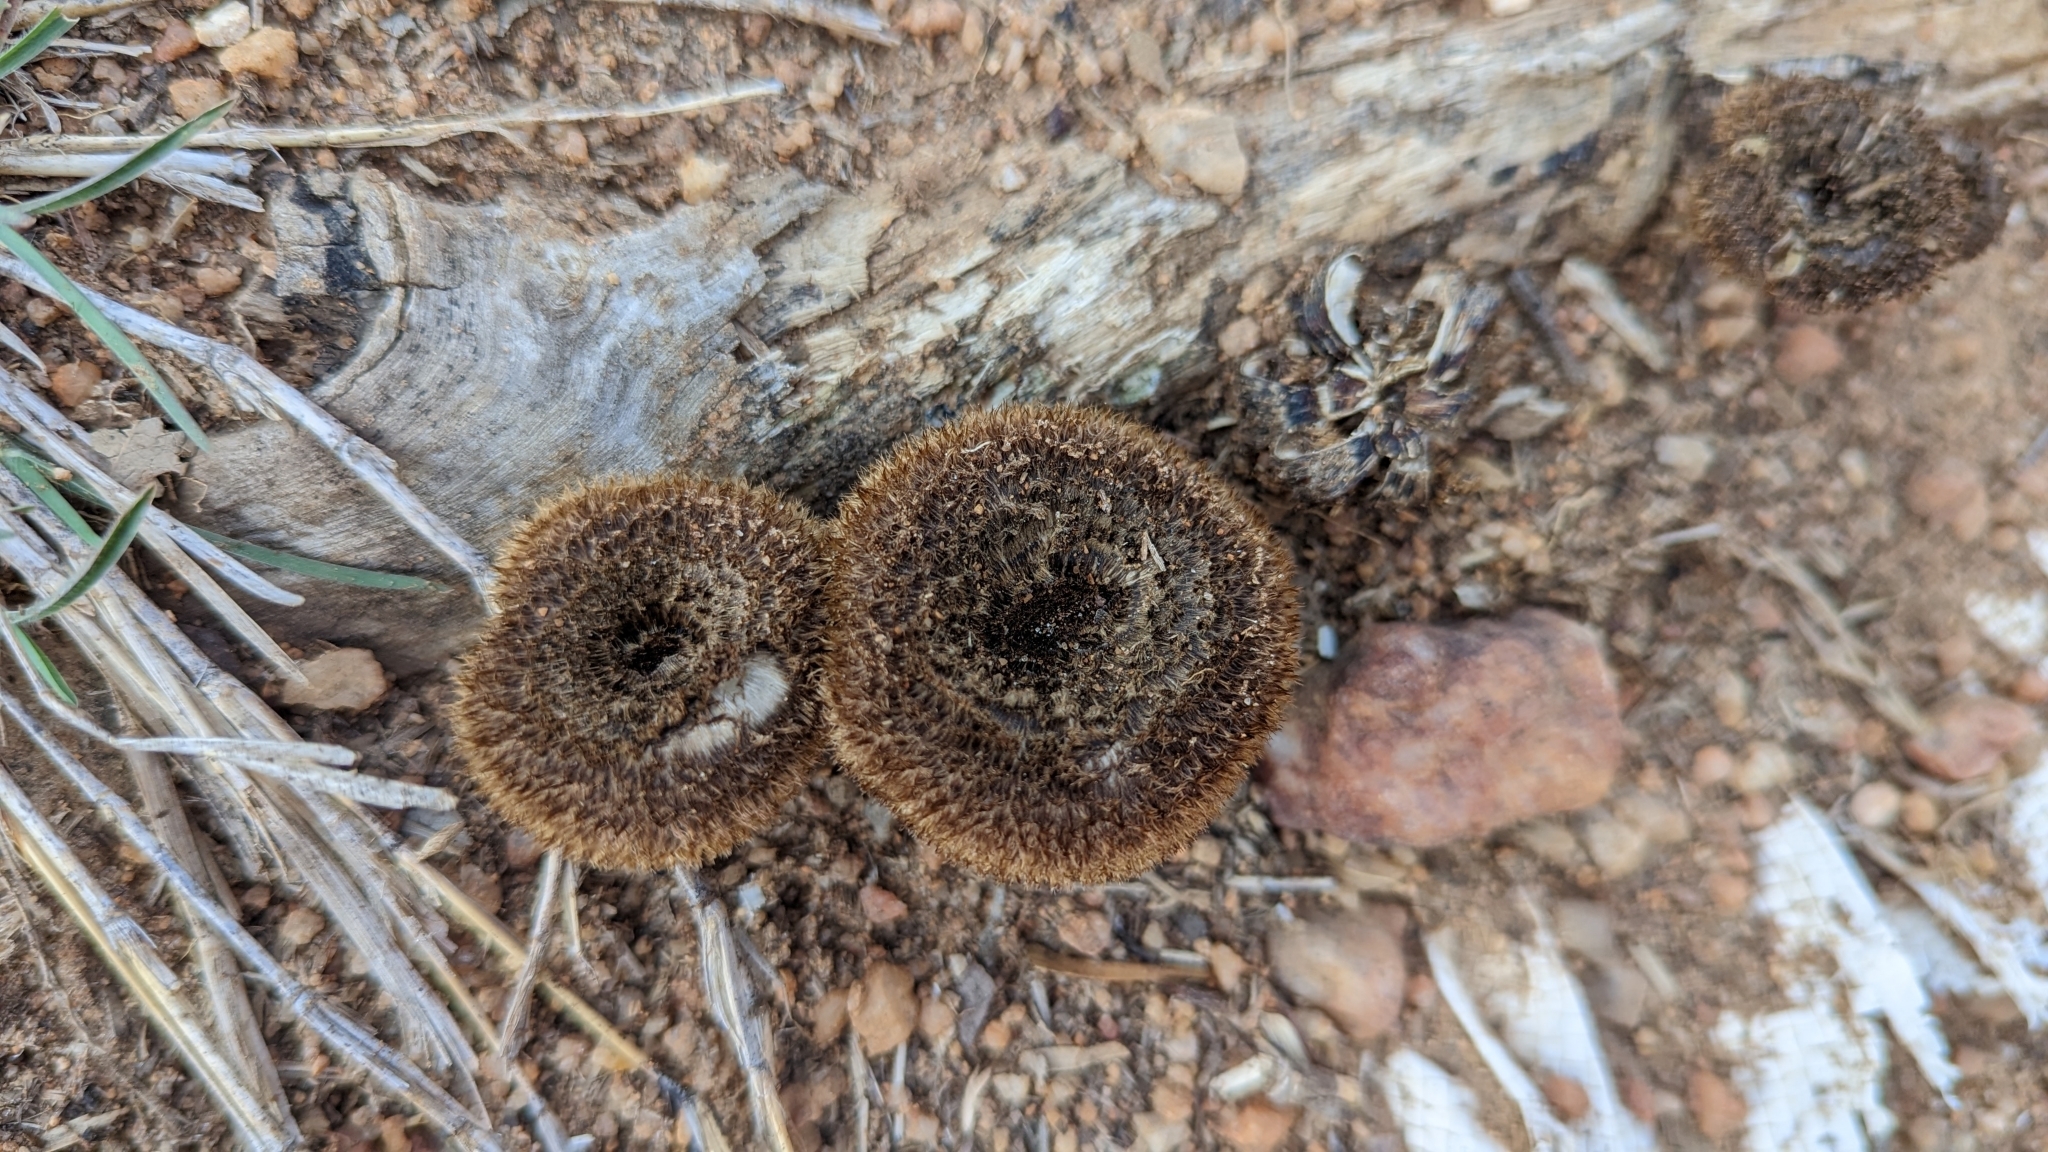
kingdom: Fungi
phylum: Basidiomycota
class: Agaricomycetes
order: Polyporales
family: Polyporaceae
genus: Lentinus
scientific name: Lentinus berteroi
